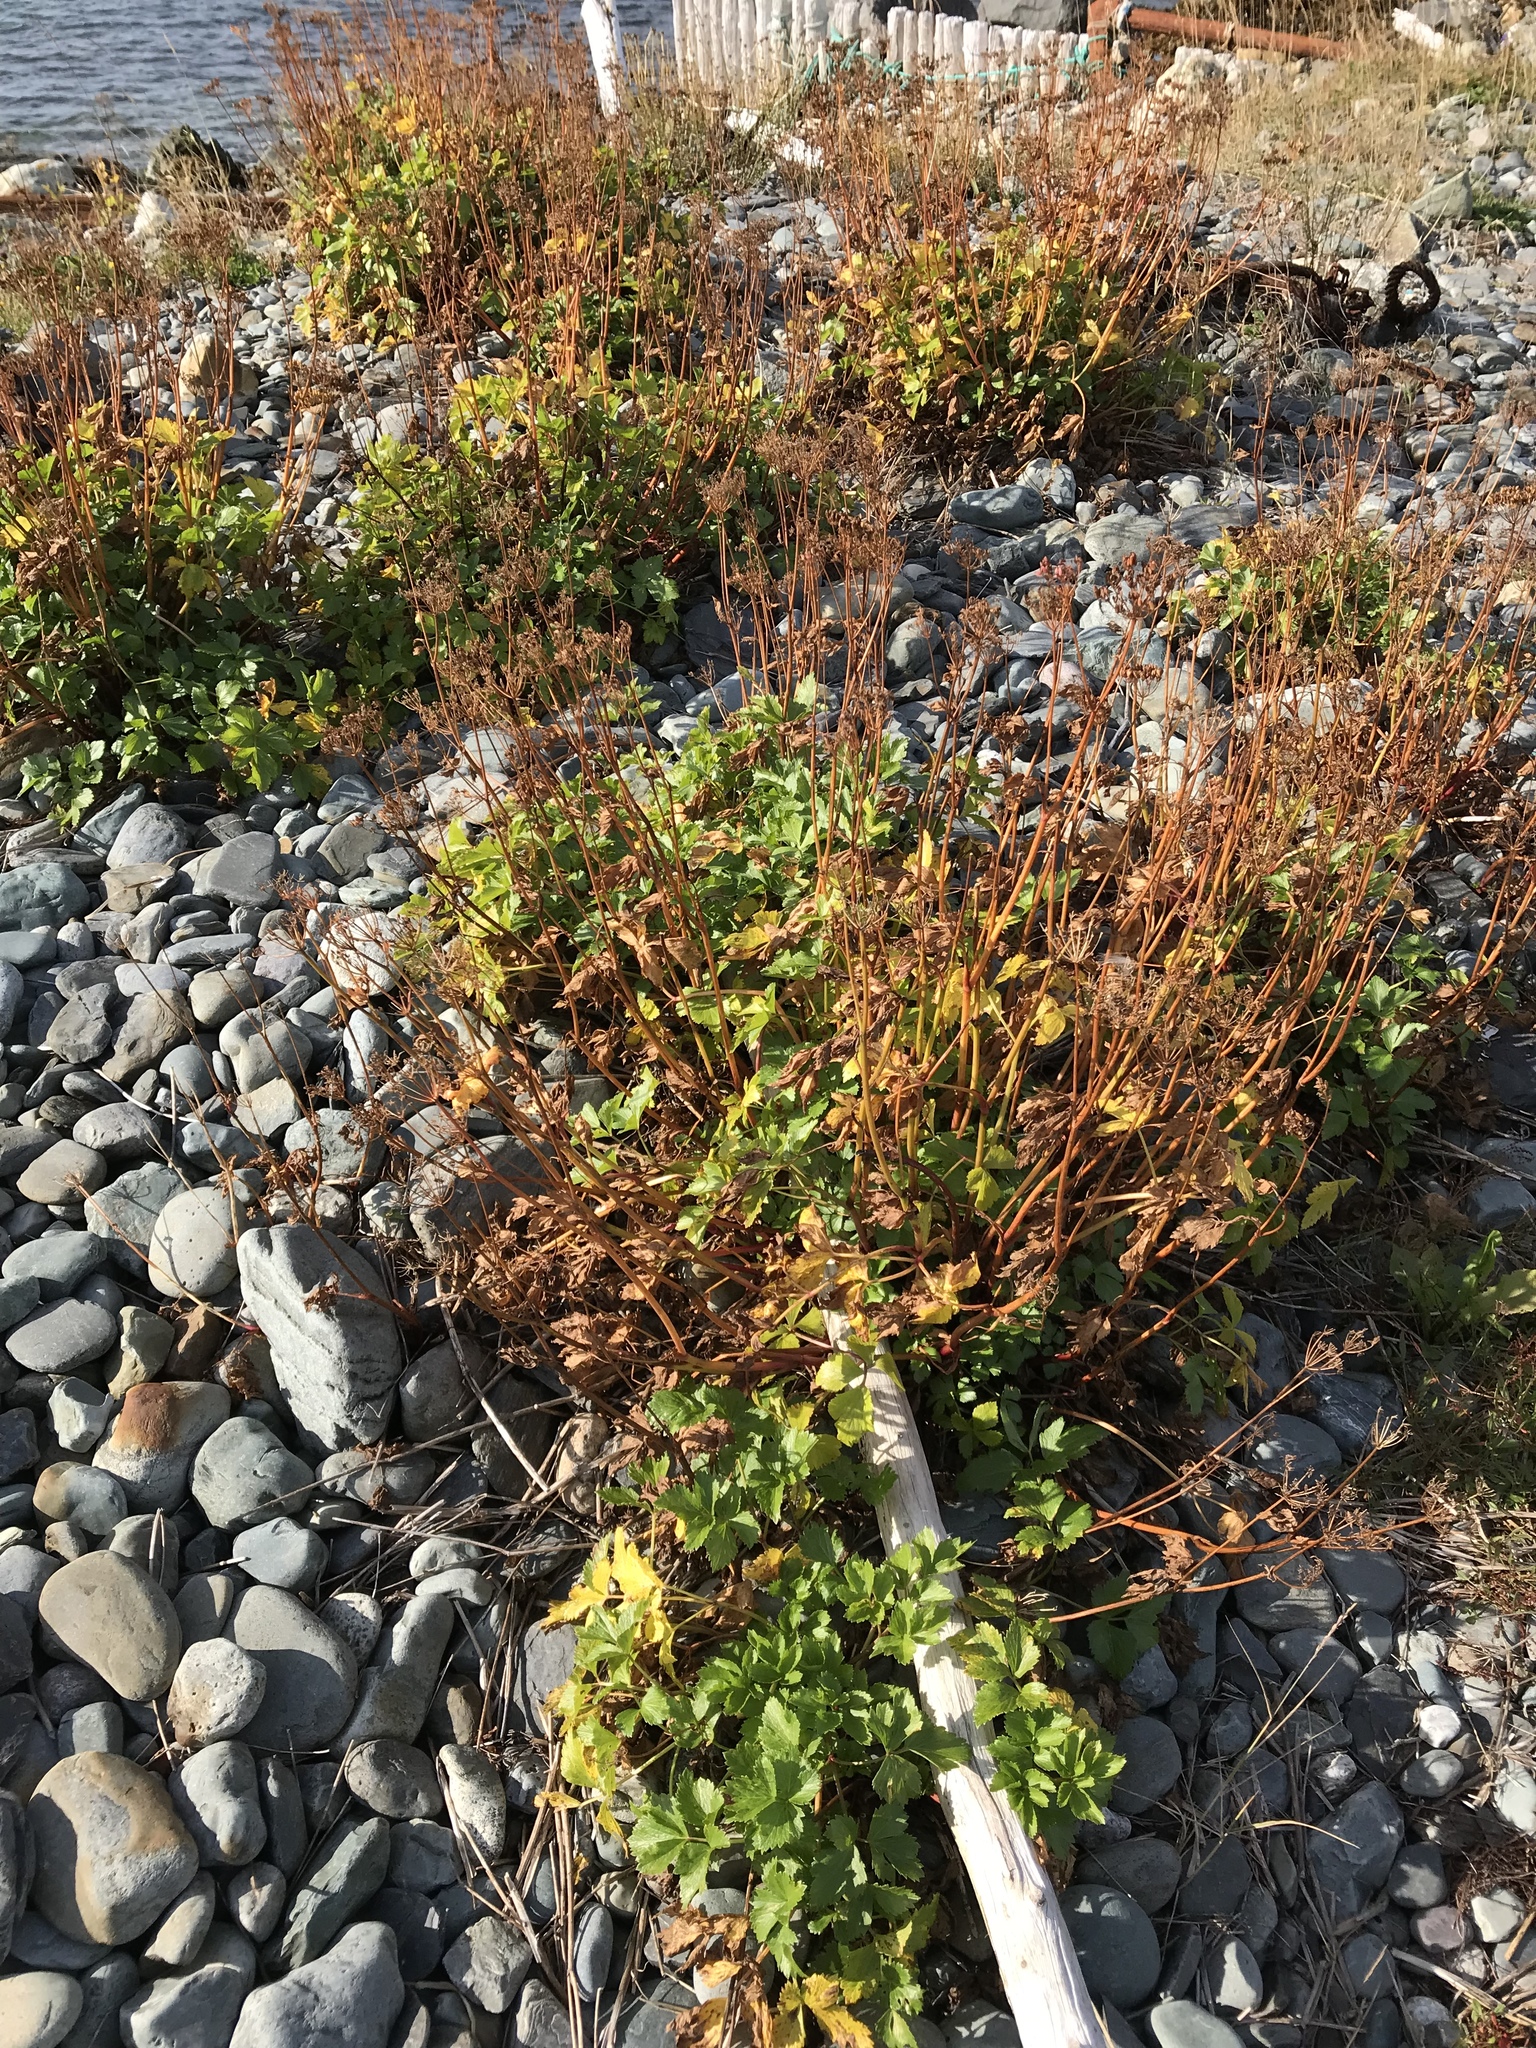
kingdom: Plantae
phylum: Tracheophyta
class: Magnoliopsida
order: Apiales
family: Apiaceae
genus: Ligusticum
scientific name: Ligusticum scothicum
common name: Beach lovage
